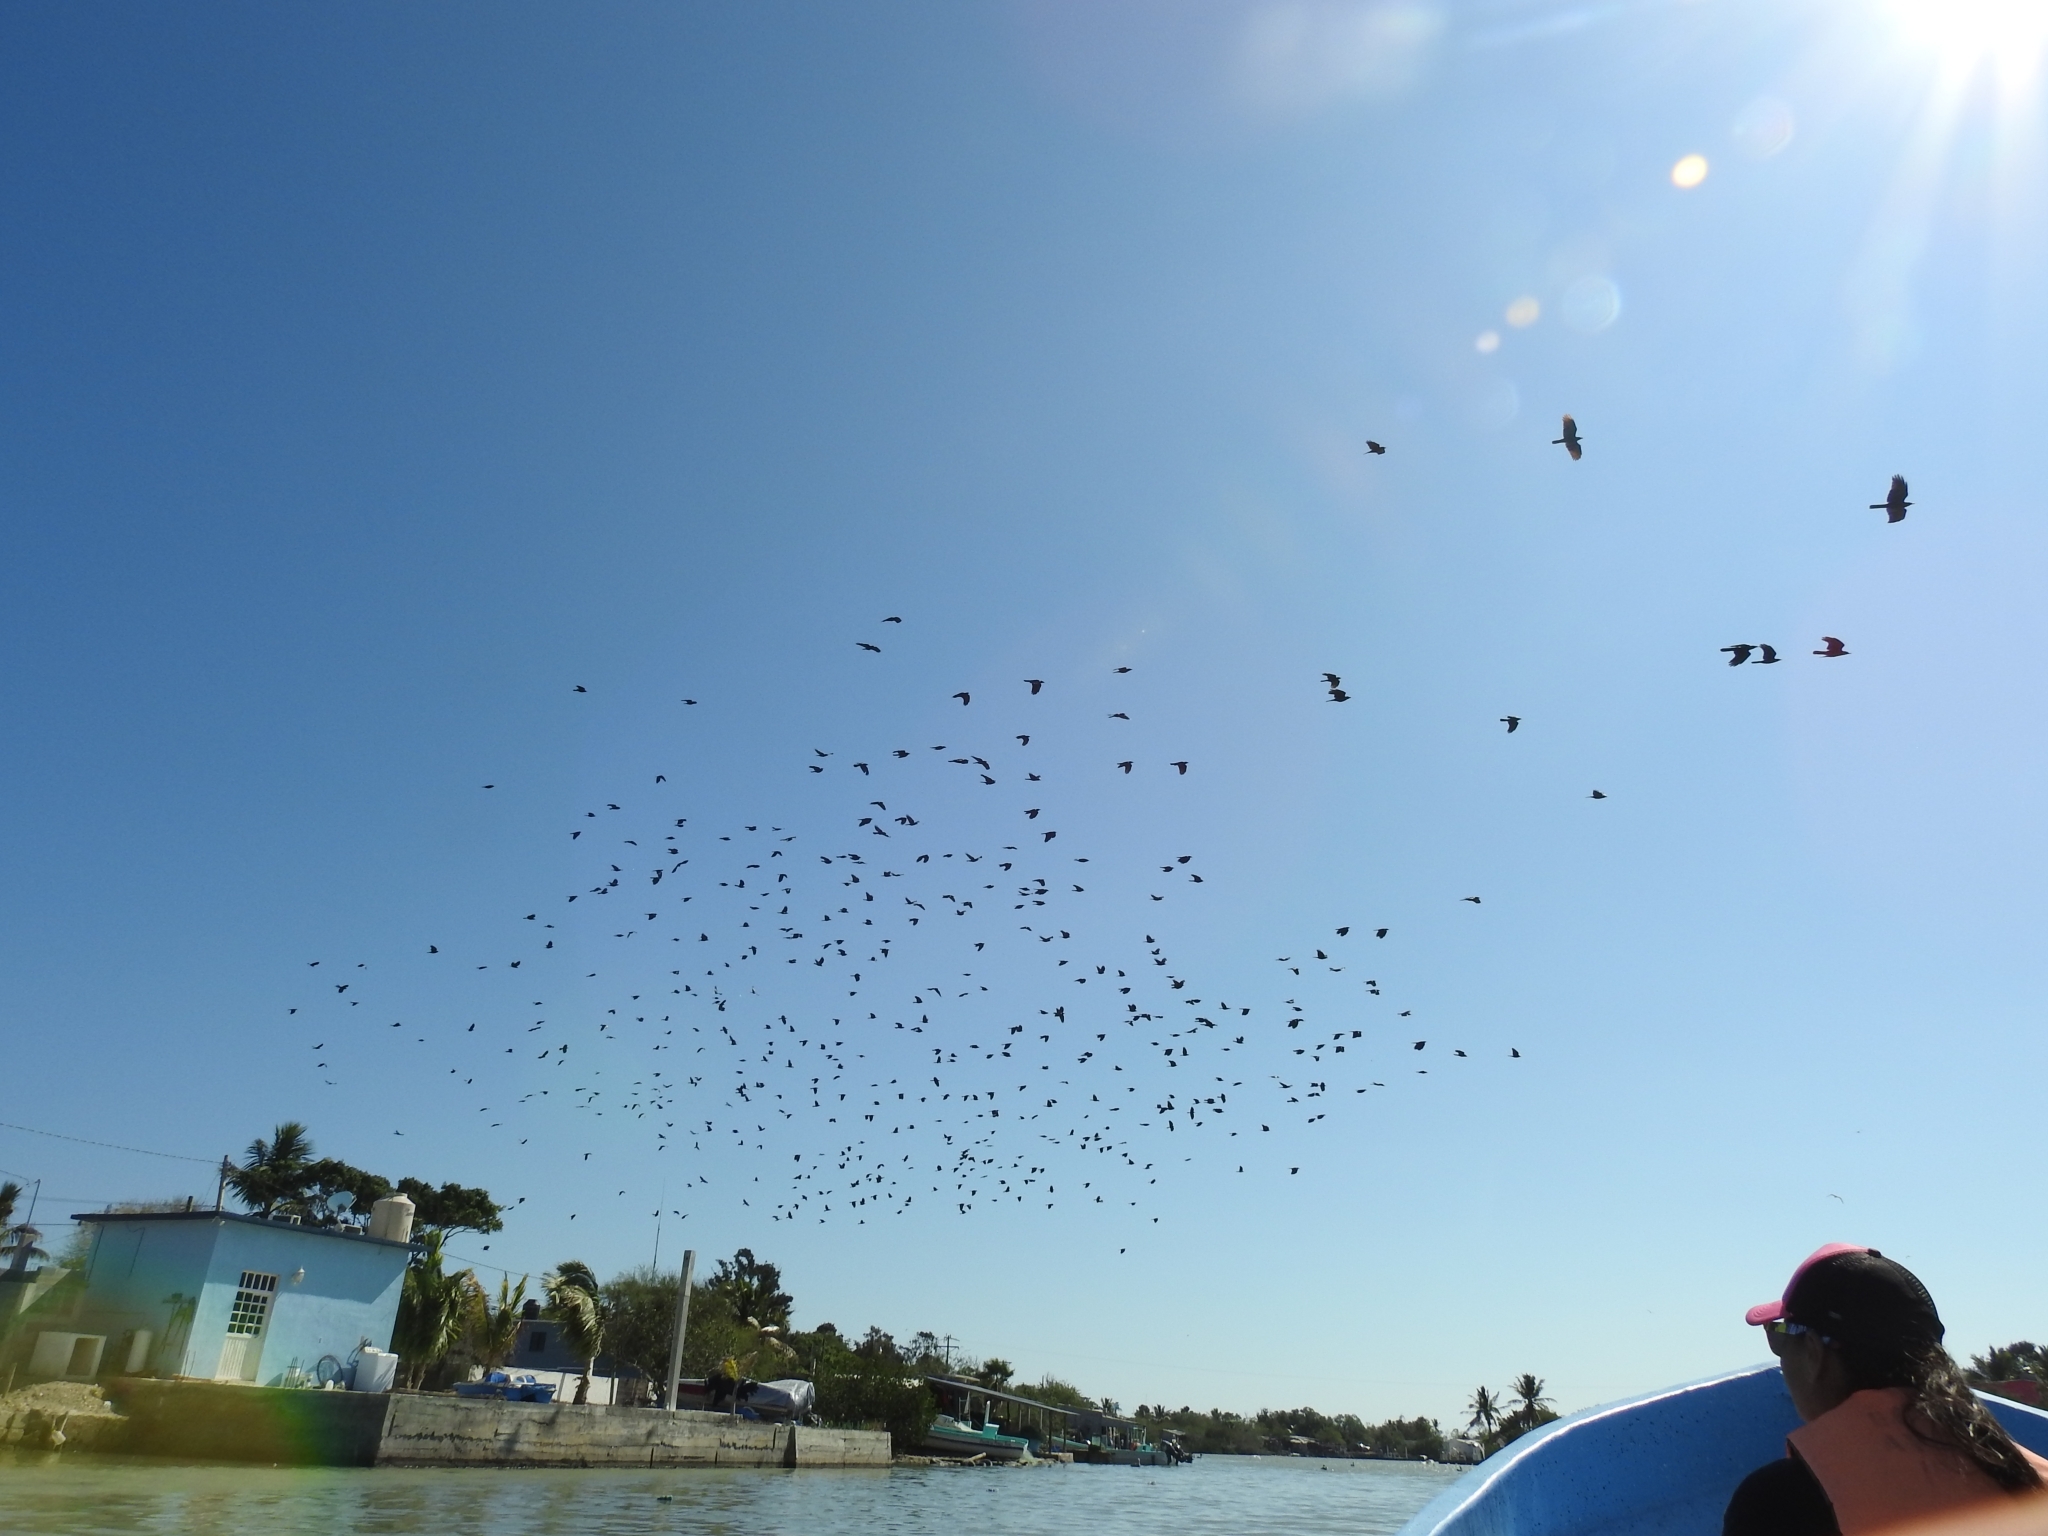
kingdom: Animalia
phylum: Chordata
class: Aves
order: Passeriformes
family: Corvidae
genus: Corvus
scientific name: Corvus imparatus
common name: Tamaulipas crow
